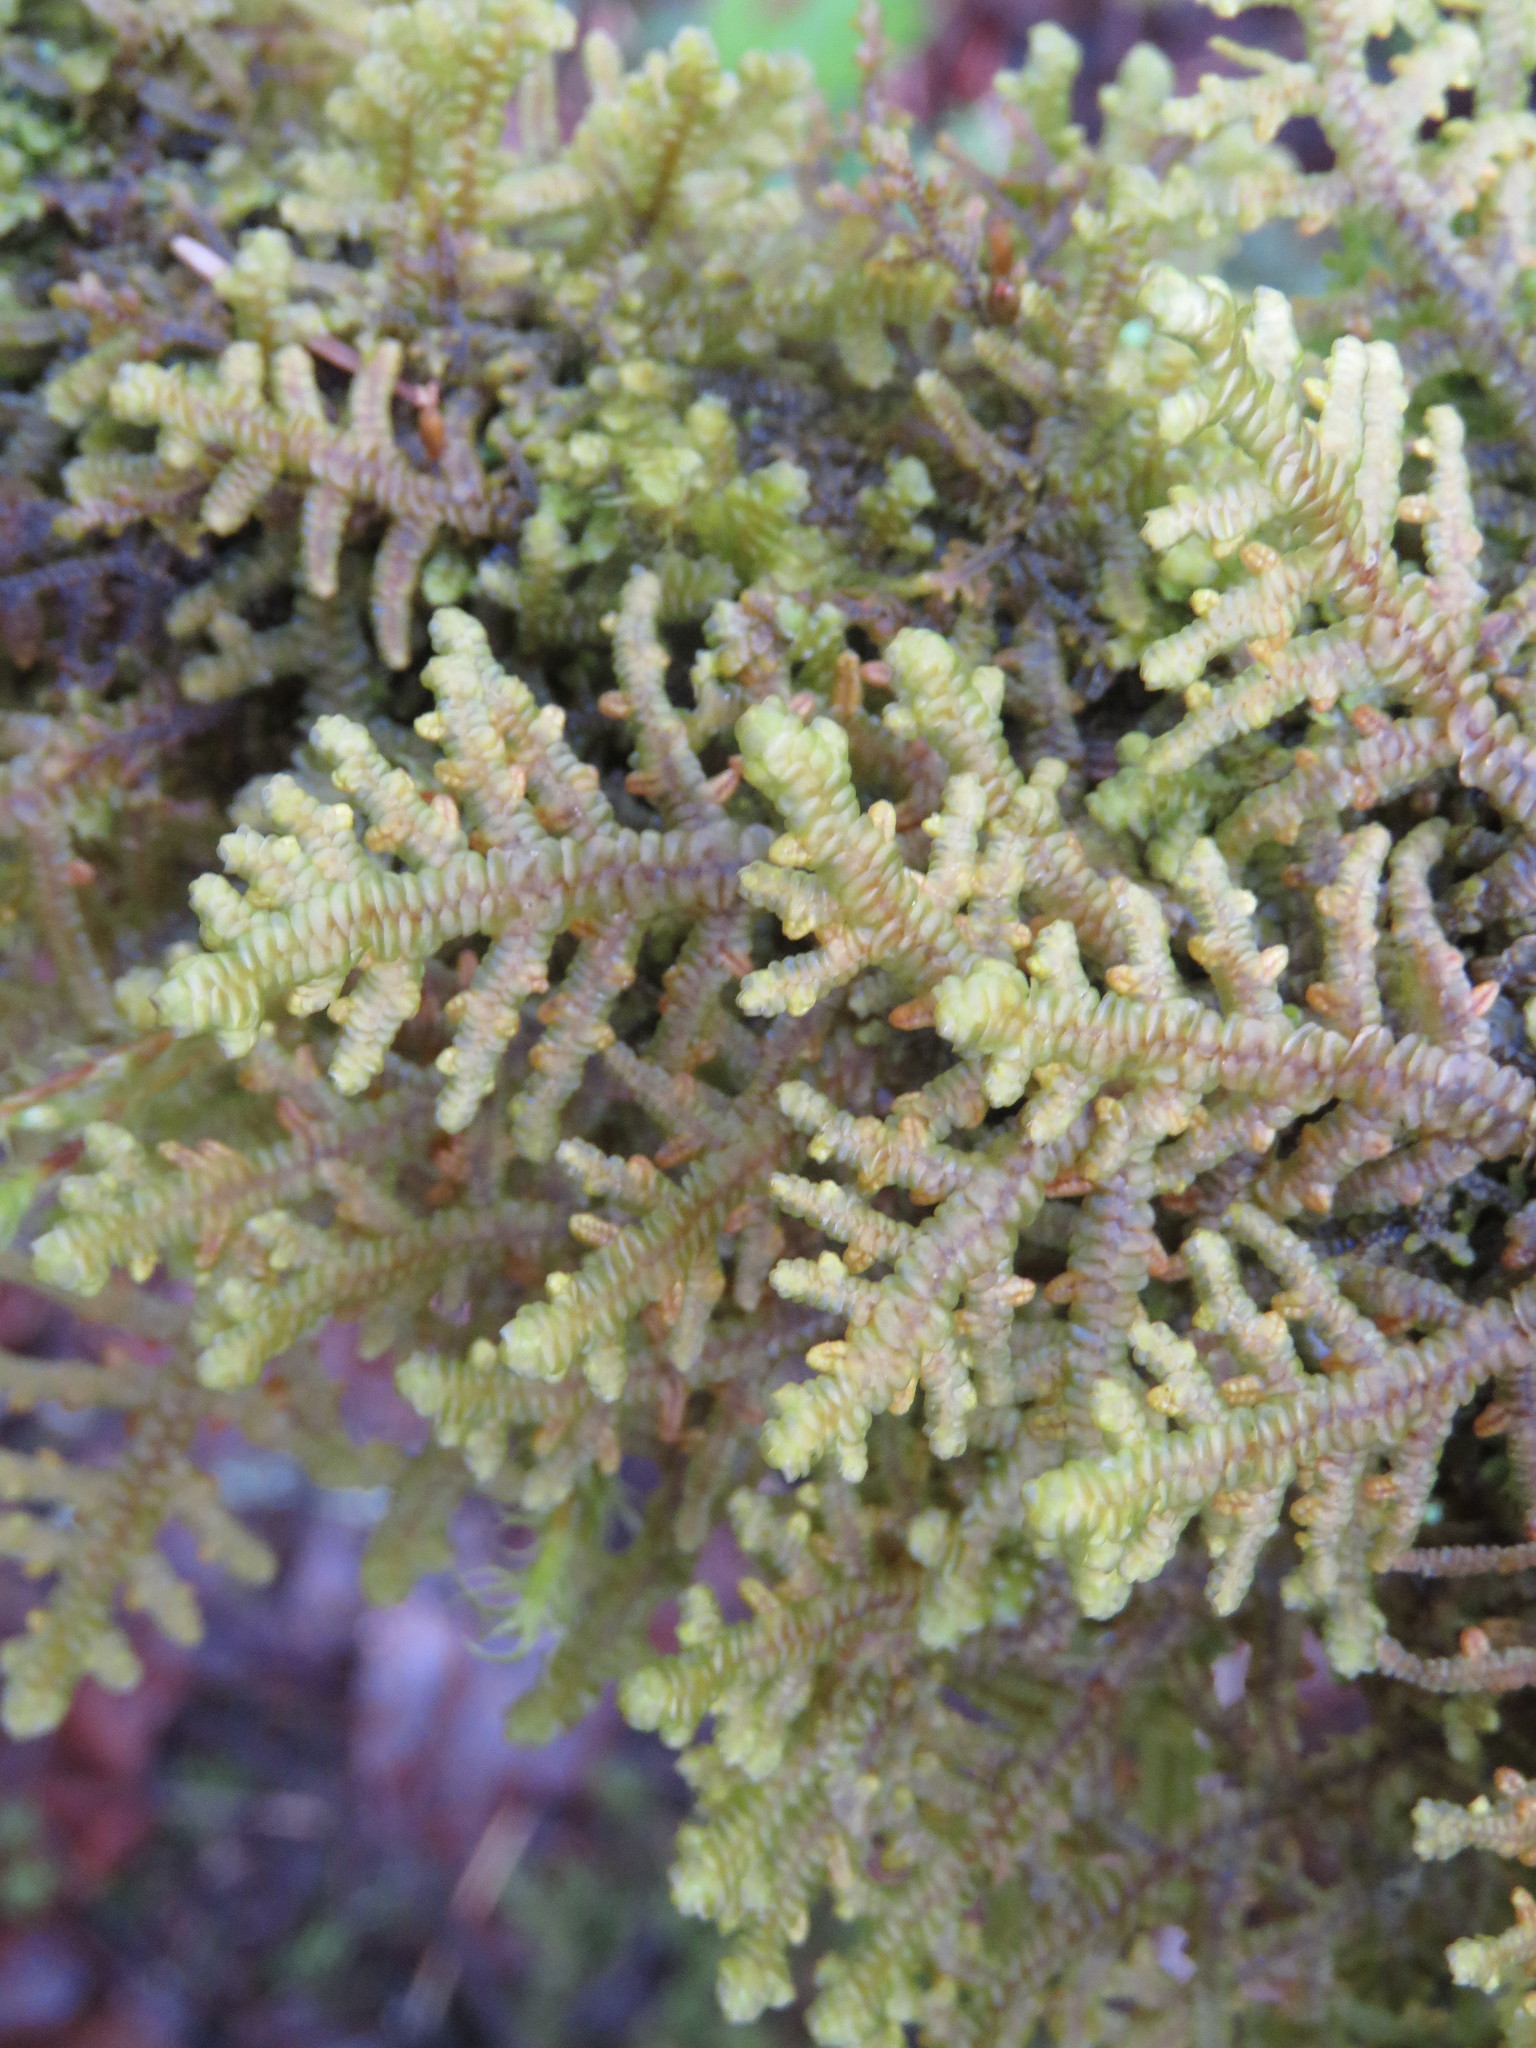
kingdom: Plantae
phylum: Marchantiophyta
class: Jungermanniopsida
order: Porellales
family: Porellaceae
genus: Porella
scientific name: Porella navicularis
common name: Tree ruffle liverwort
